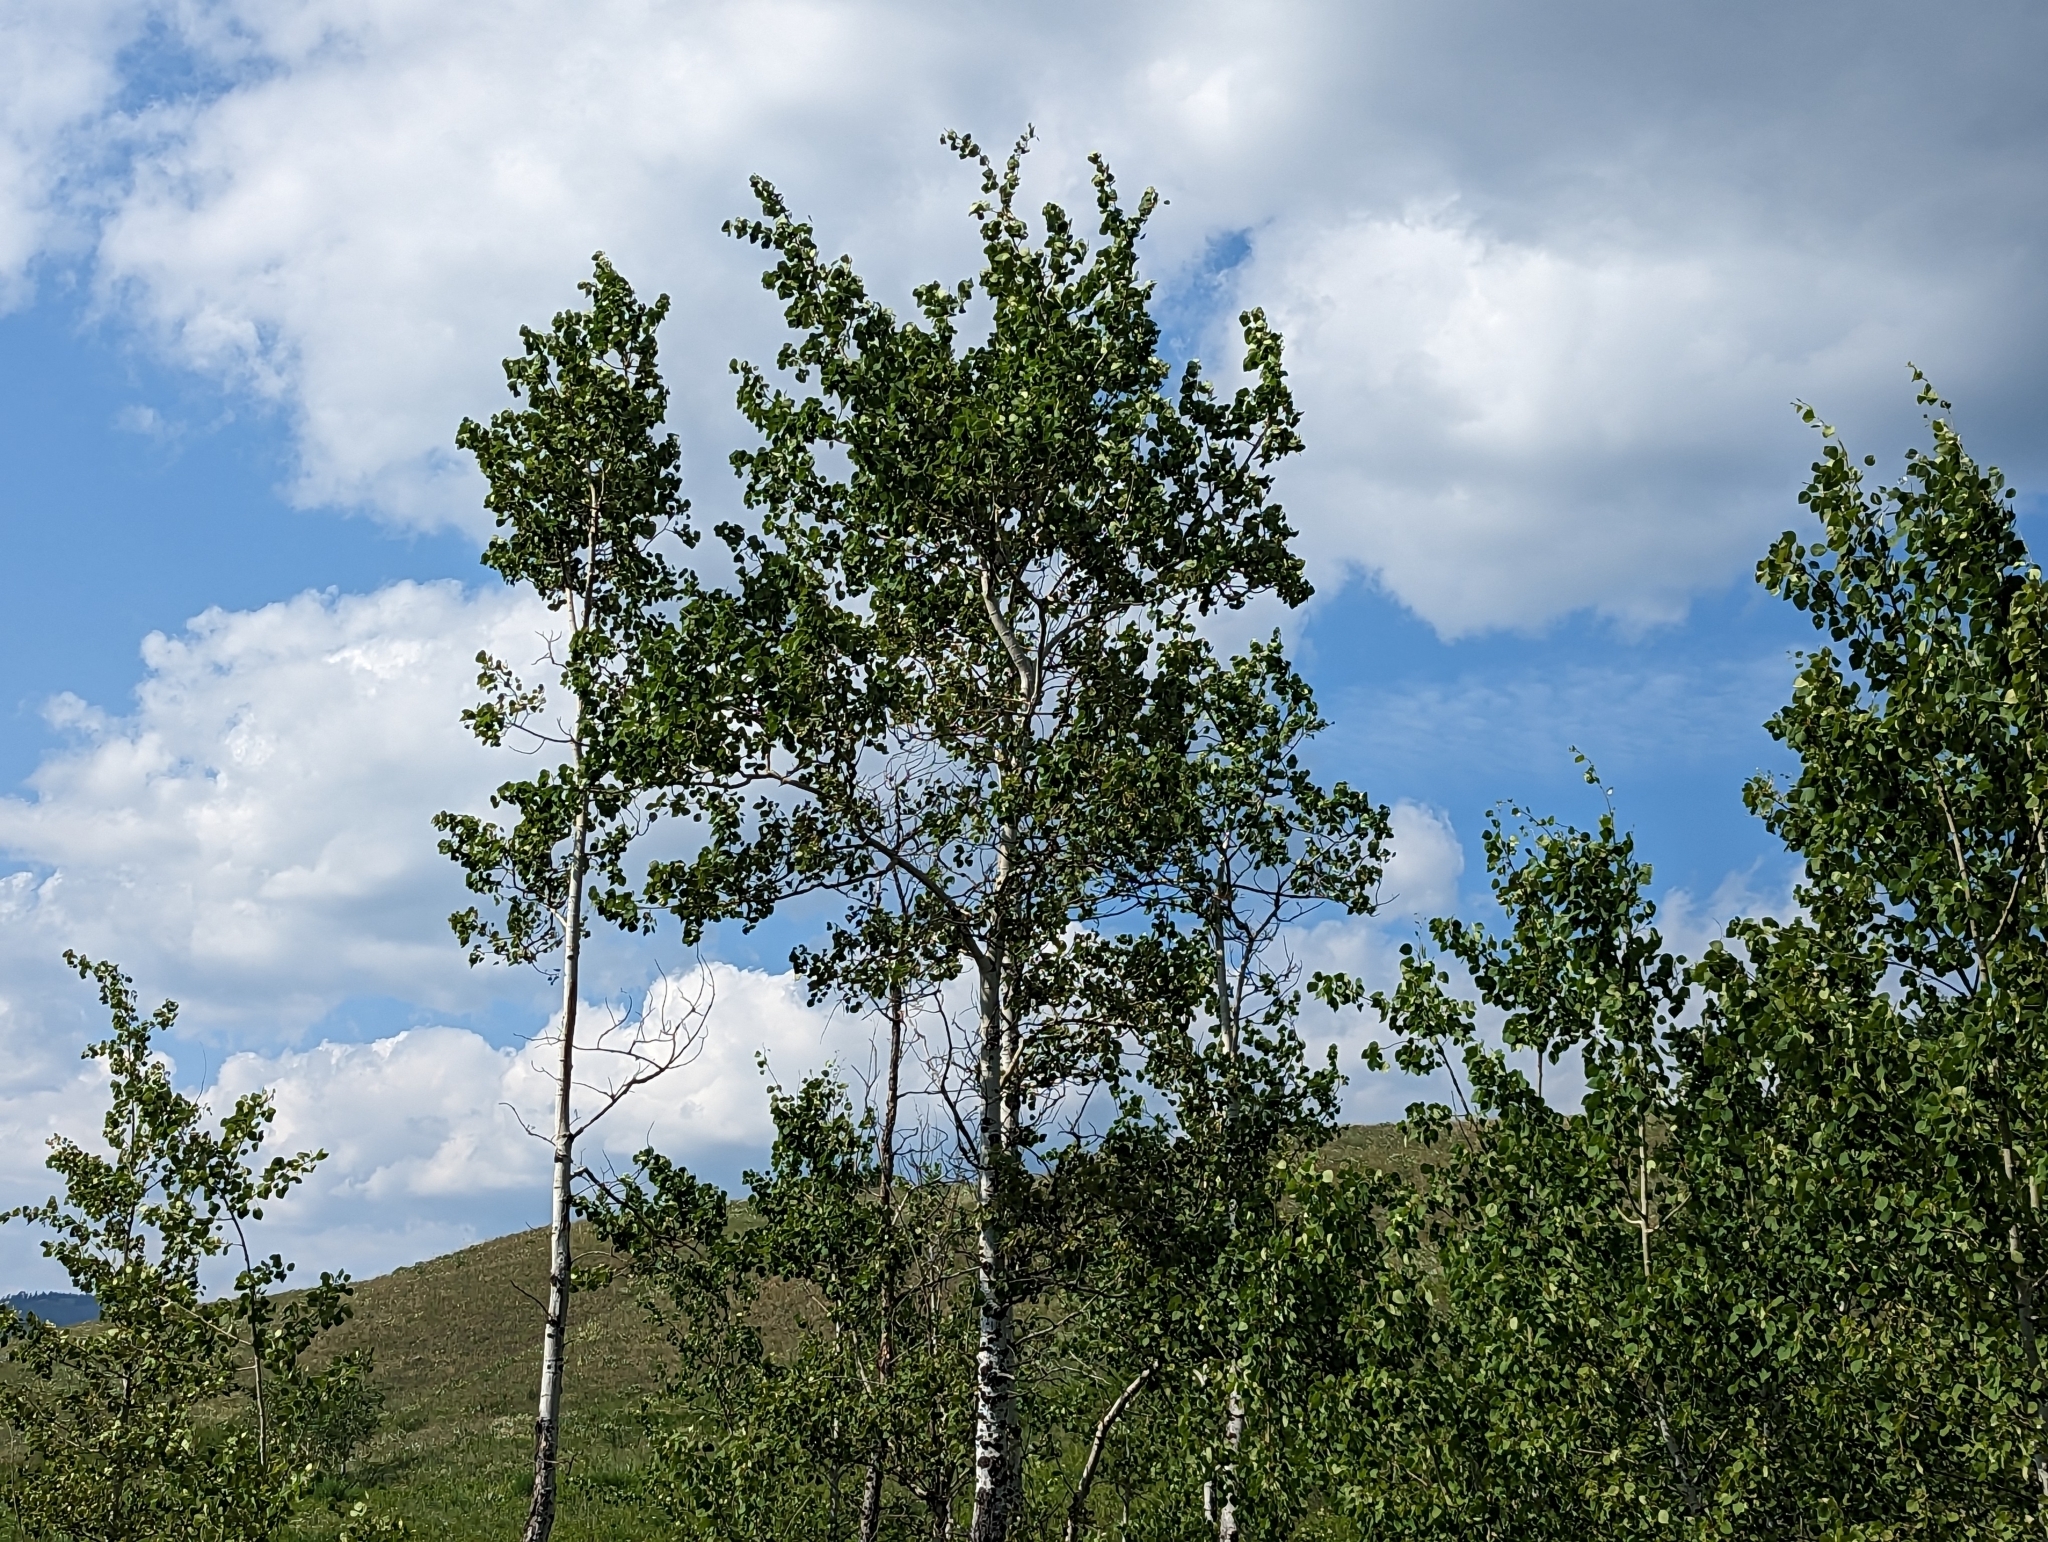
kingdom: Plantae
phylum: Tracheophyta
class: Magnoliopsida
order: Malpighiales
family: Salicaceae
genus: Populus
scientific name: Populus tremuloides
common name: Quaking aspen
